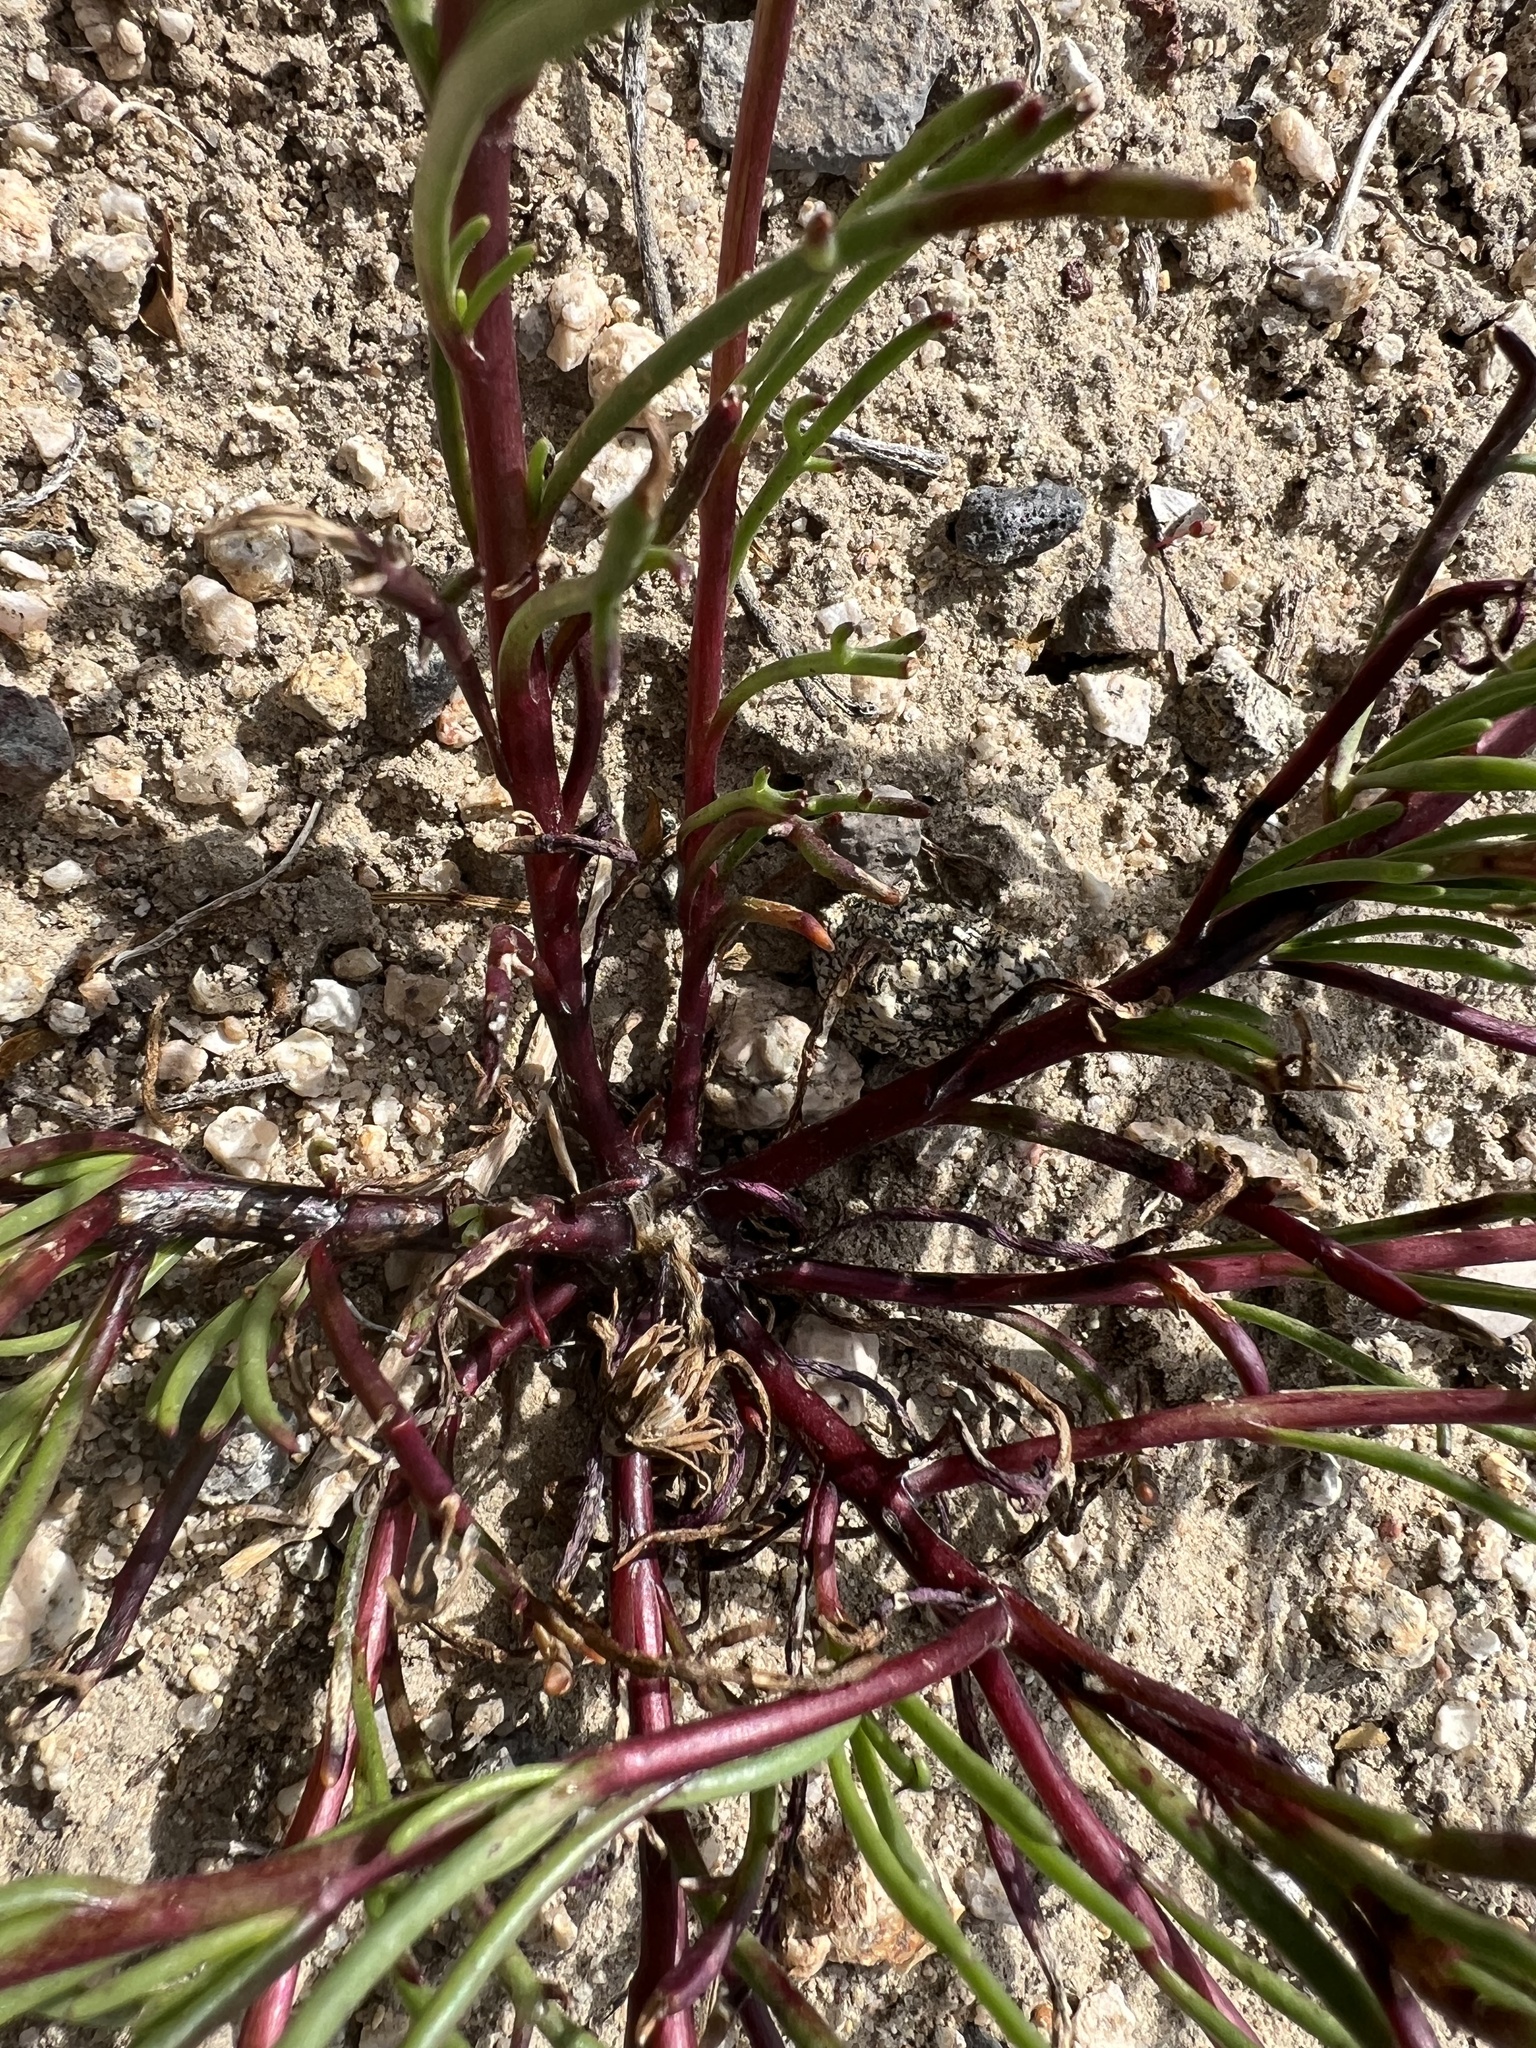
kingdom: Plantae
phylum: Tracheophyta
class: Magnoliopsida
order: Asterales
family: Asteraceae
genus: Chaenactis
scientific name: Chaenactis fremontii
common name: Fremont pincushion
